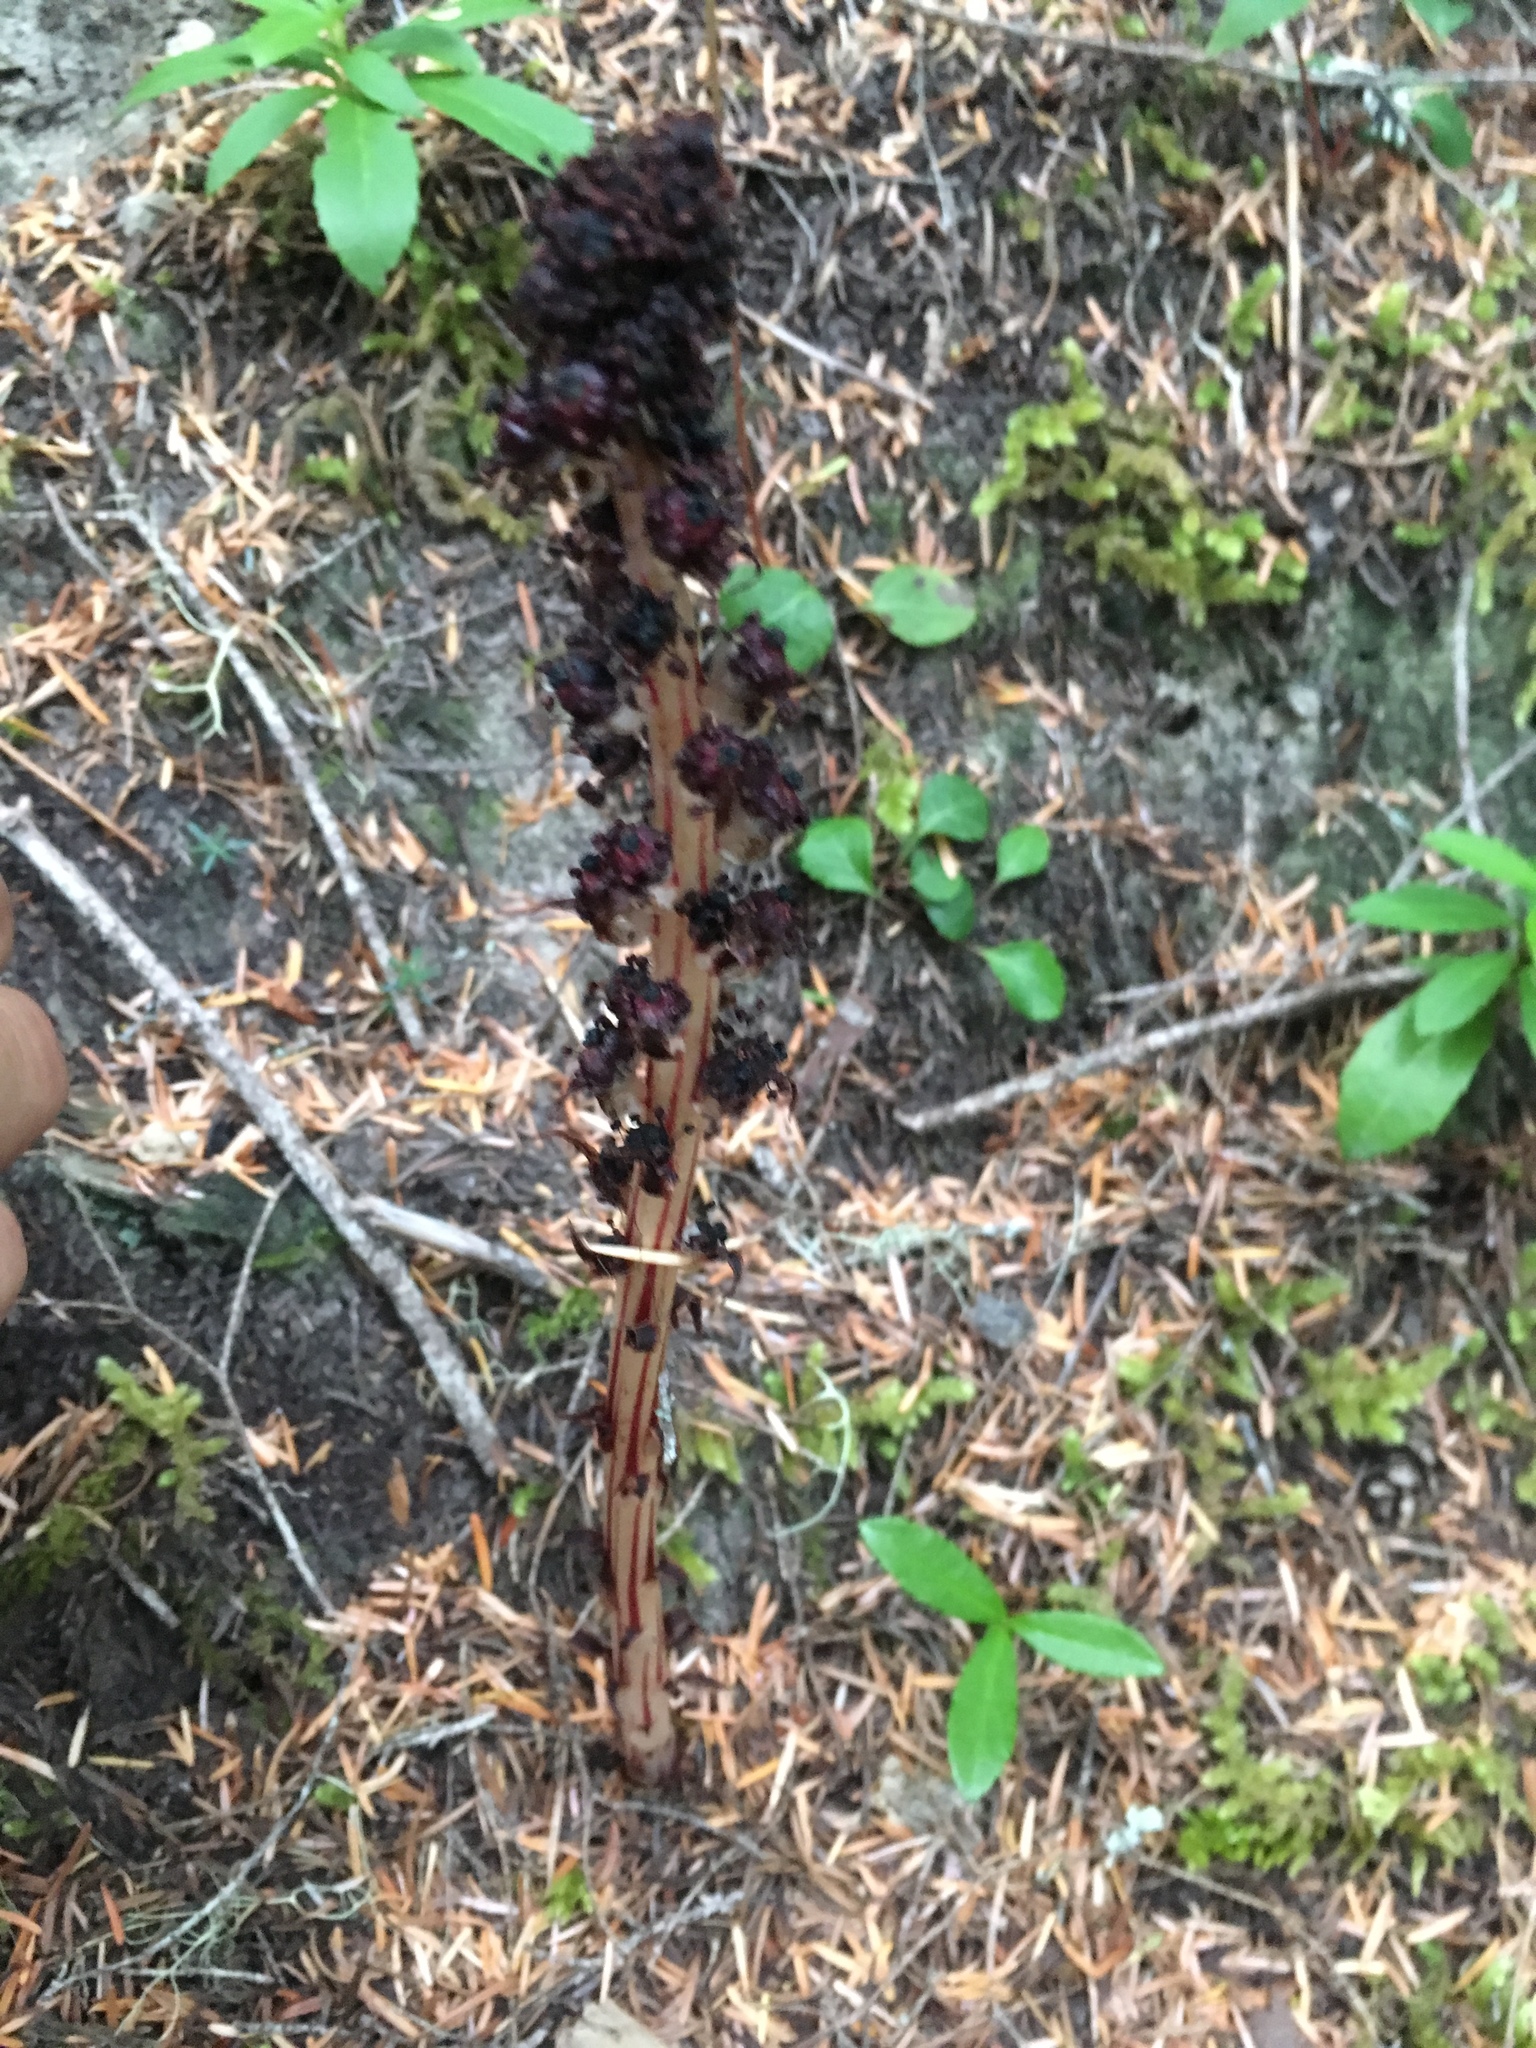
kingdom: Plantae
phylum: Tracheophyta
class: Magnoliopsida
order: Ericales
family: Ericaceae
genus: Allotropa
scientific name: Allotropa virgata
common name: Candy-striped allotropa
